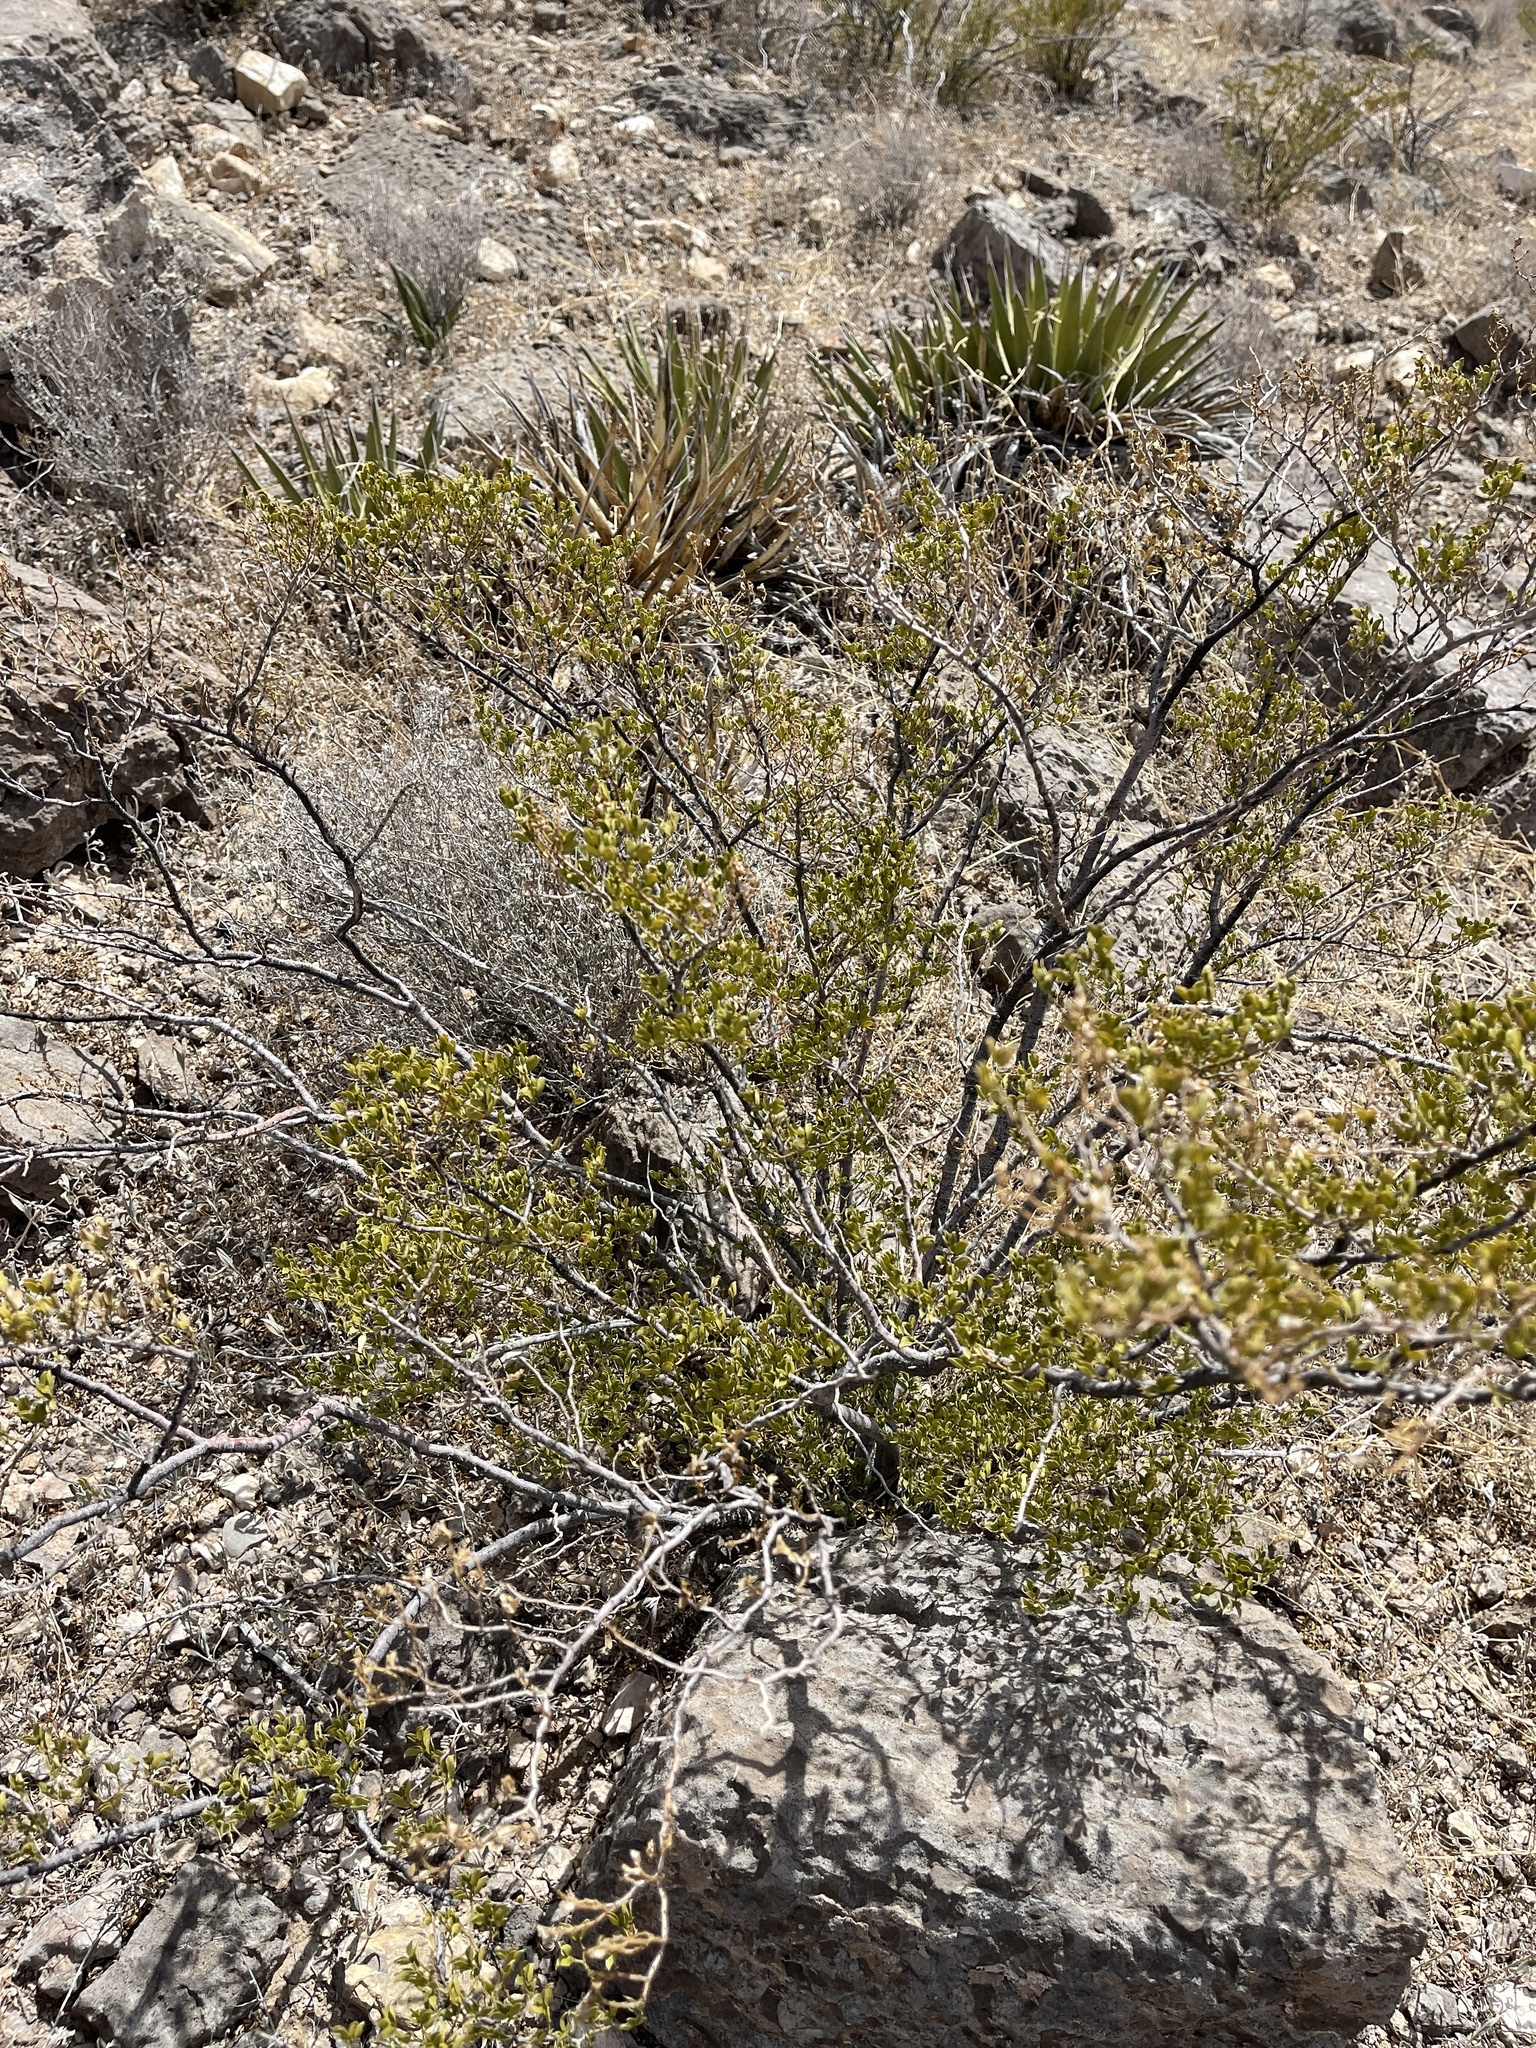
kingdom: Plantae
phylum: Tracheophyta
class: Magnoliopsida
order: Zygophyllales
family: Zygophyllaceae
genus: Larrea
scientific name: Larrea tridentata
